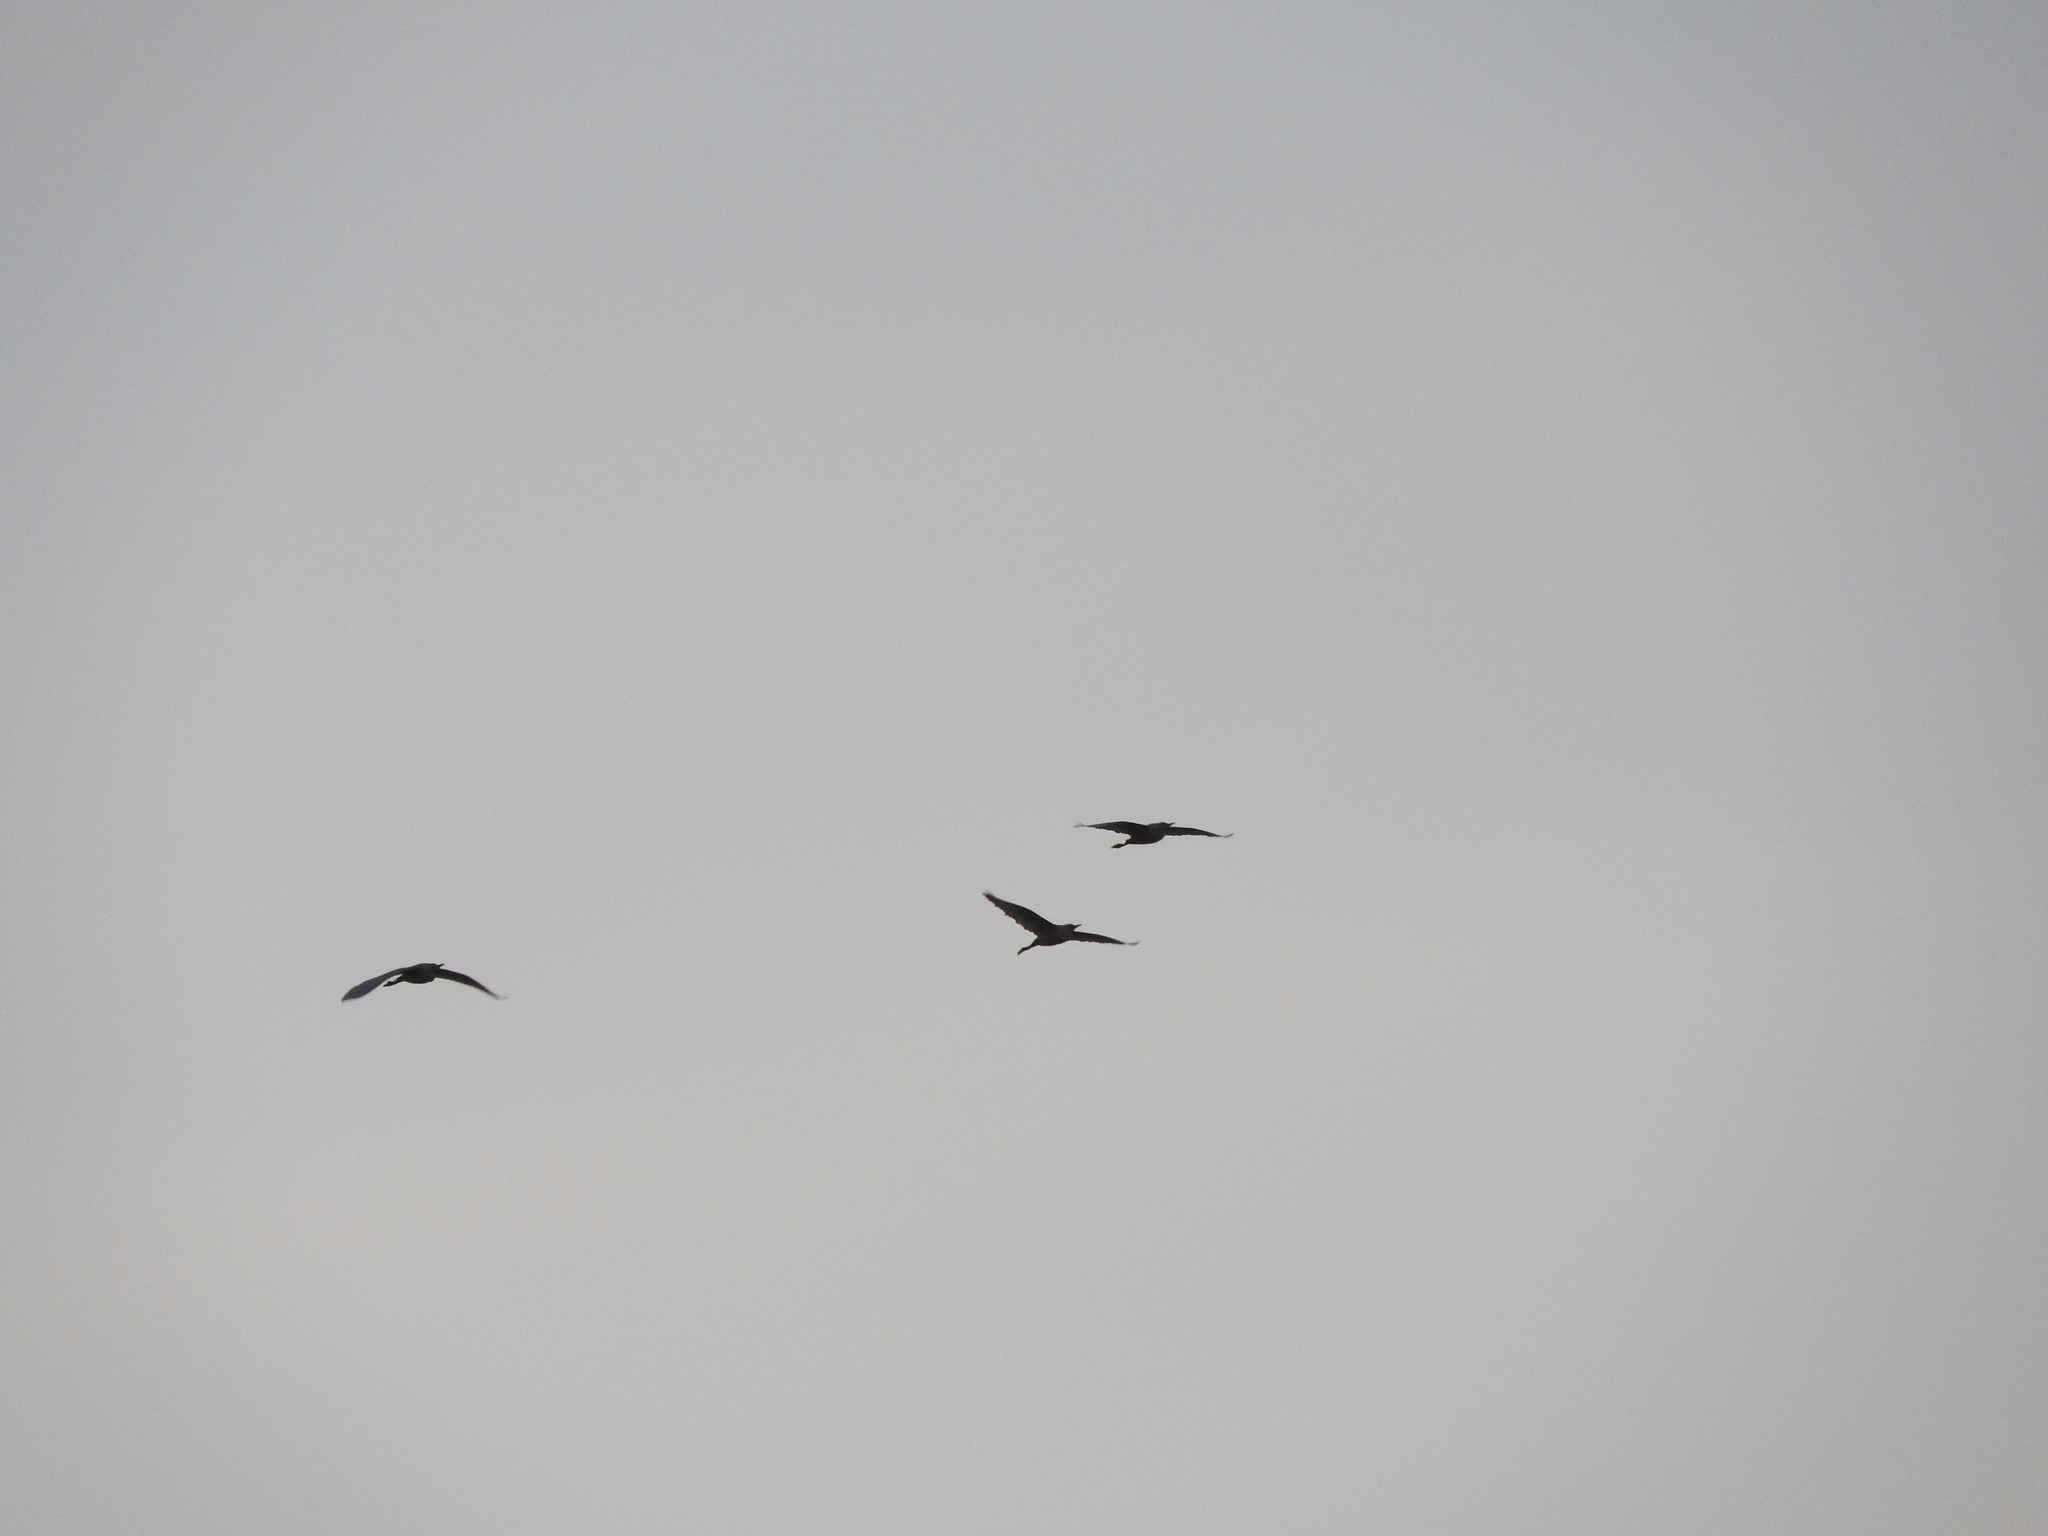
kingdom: Animalia
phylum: Chordata
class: Aves
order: Pelecaniformes
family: Ardeidae
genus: Bubulcus
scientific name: Bubulcus ibis
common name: Cattle egret
